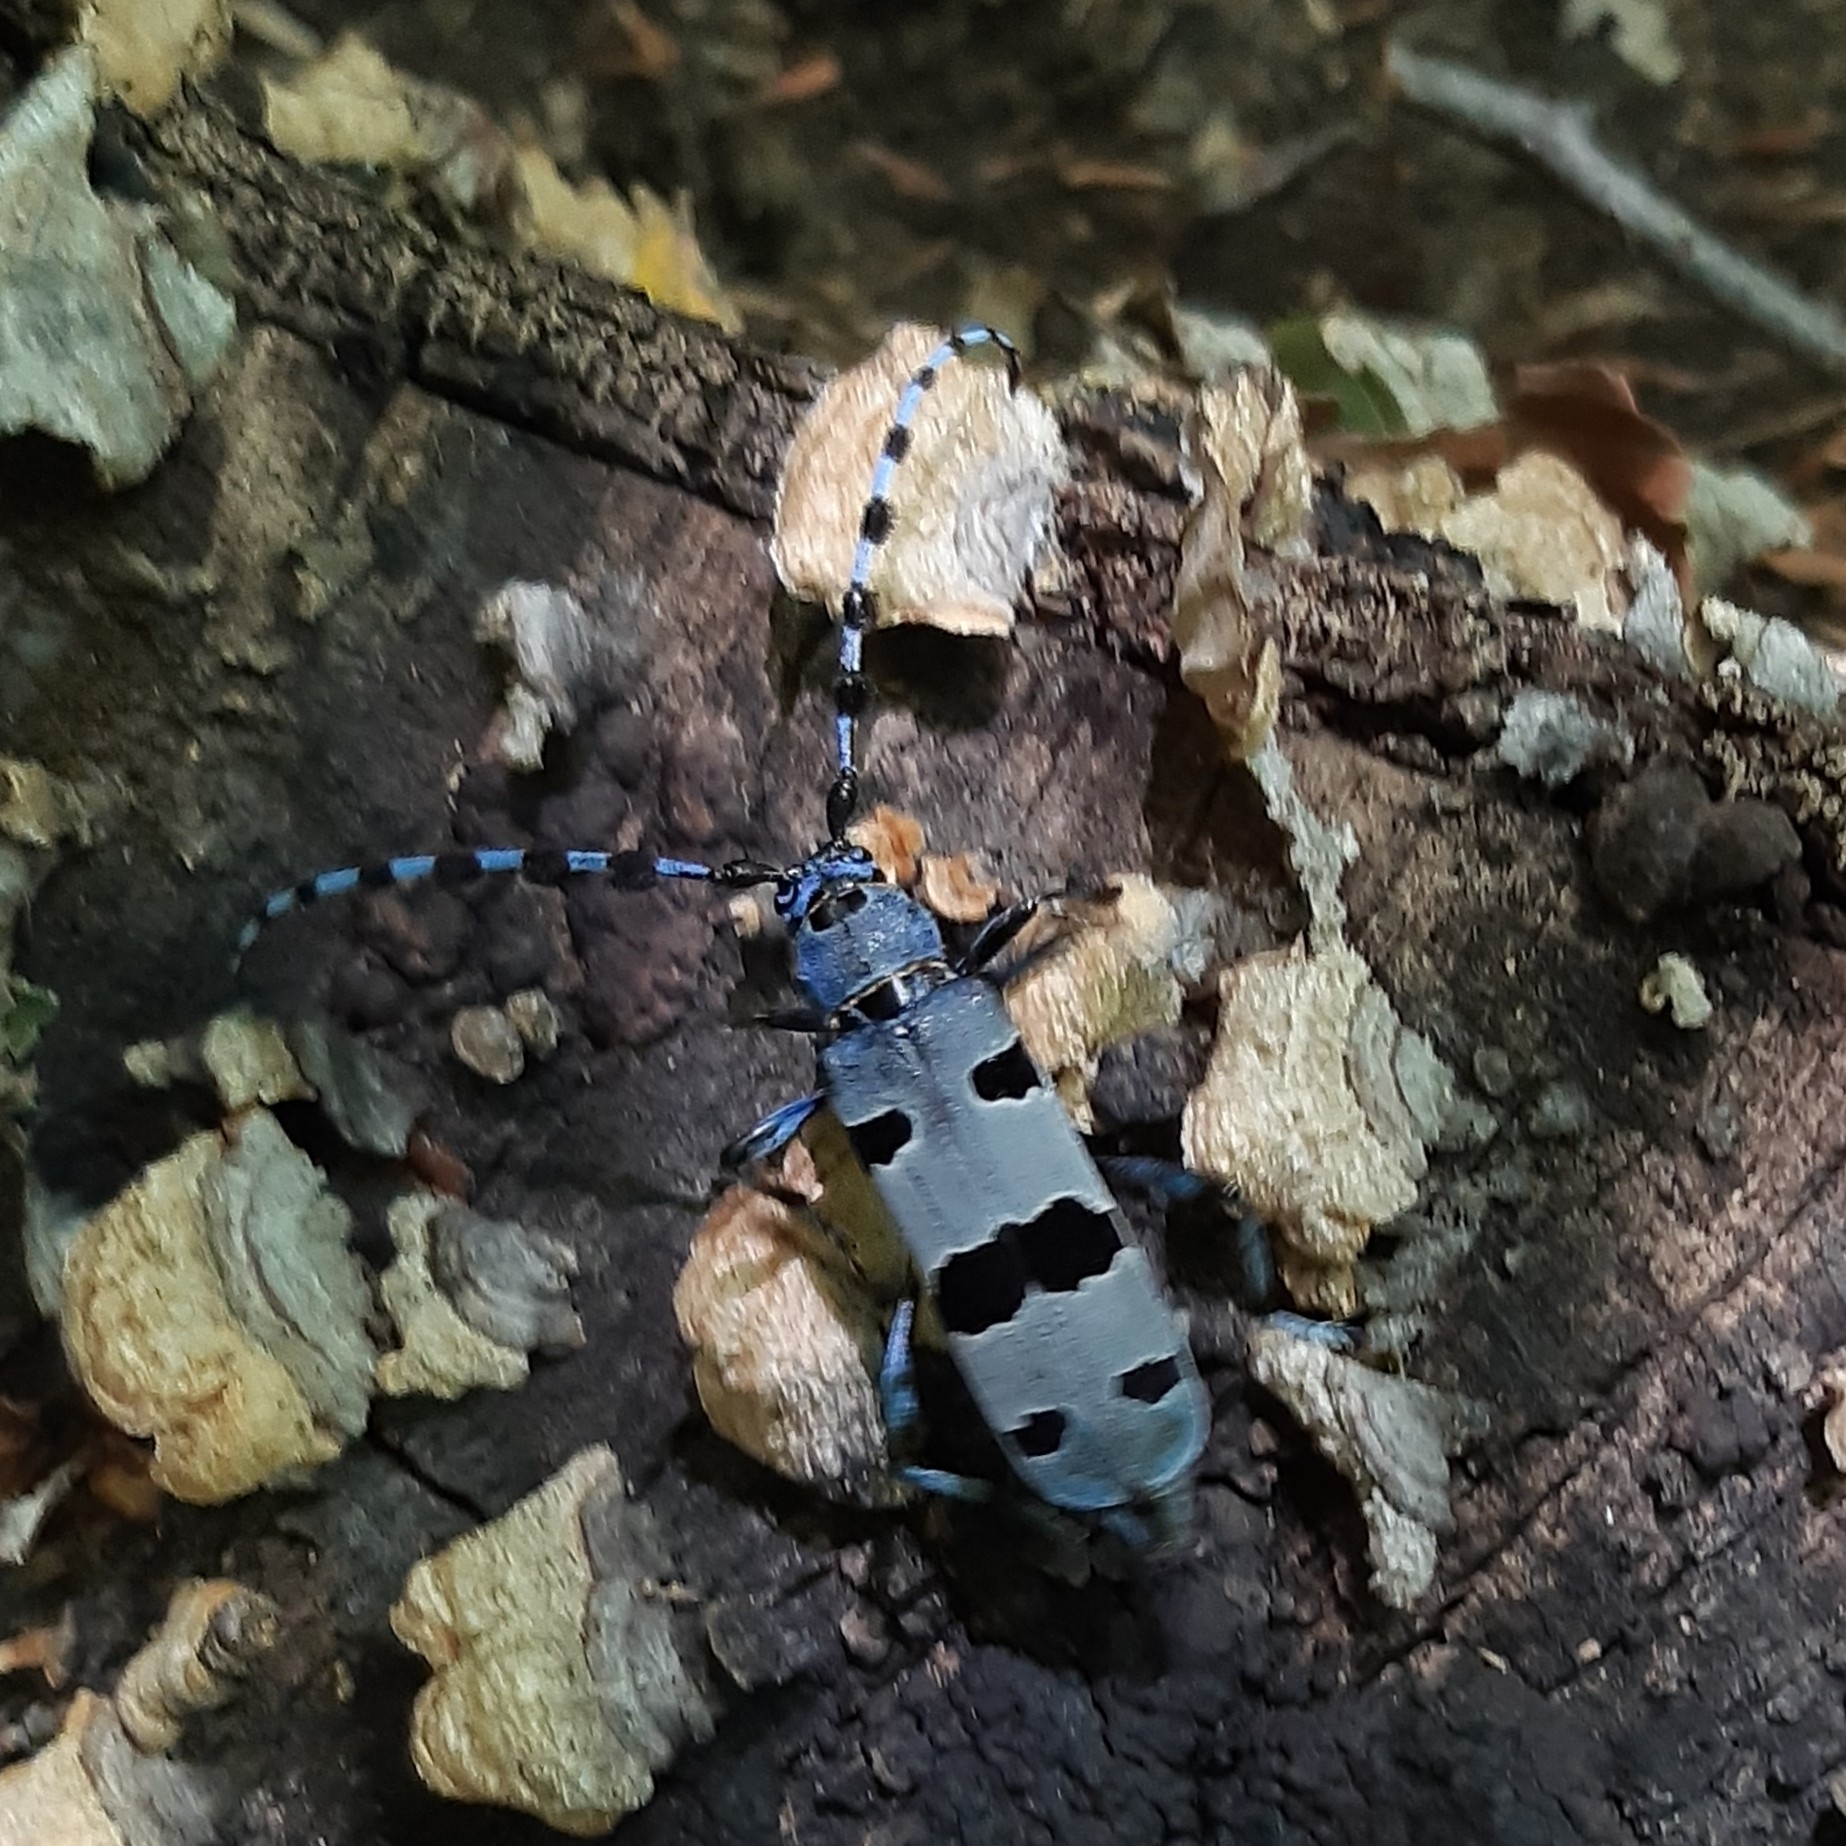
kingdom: Animalia
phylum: Arthropoda
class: Insecta
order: Coleoptera
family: Cerambycidae
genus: Rosalia
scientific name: Rosalia alpina
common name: Rosalia longicorn
